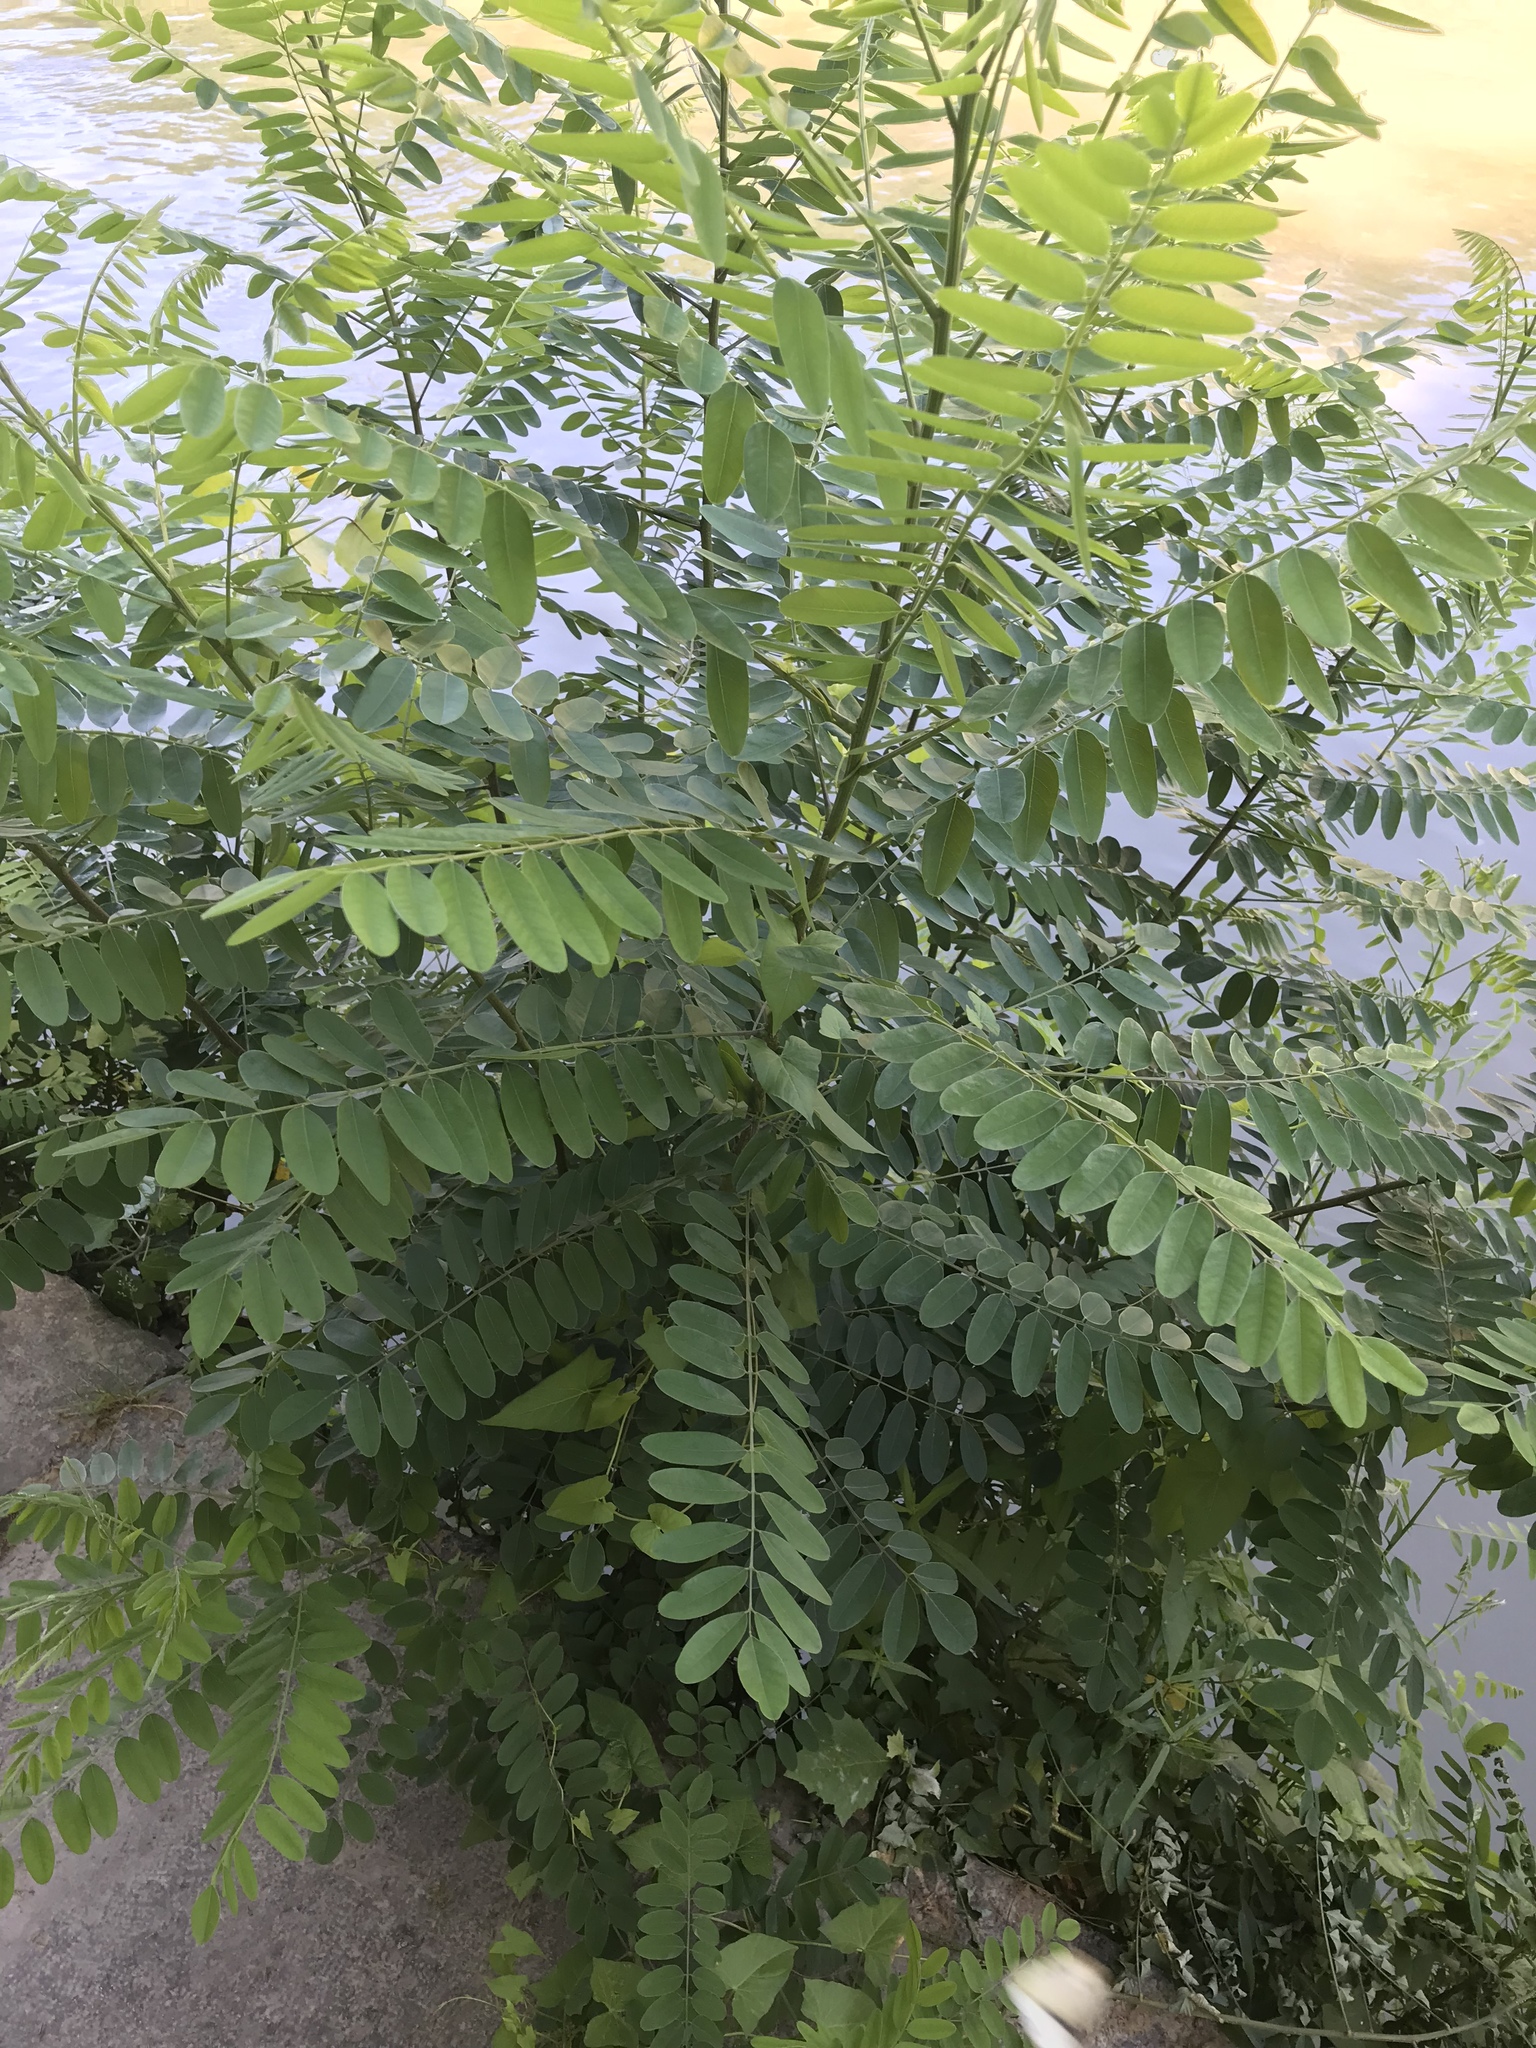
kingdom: Plantae
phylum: Tracheophyta
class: Magnoliopsida
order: Fabales
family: Fabaceae
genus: Robinia
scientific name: Robinia pseudoacacia
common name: Black locust
